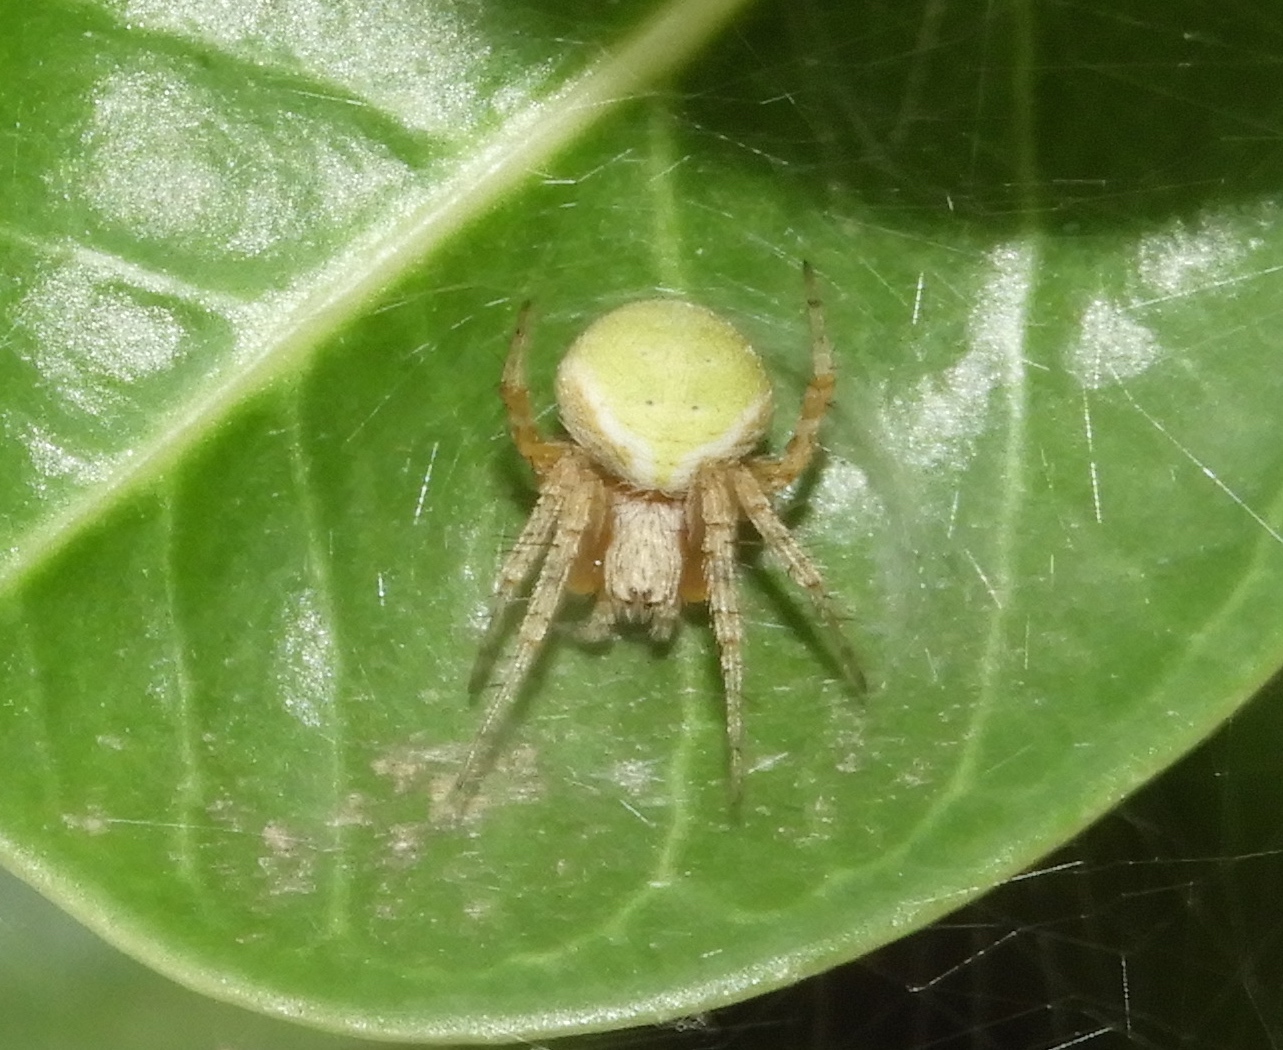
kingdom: Animalia
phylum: Arthropoda
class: Arachnida
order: Araneae
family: Araneidae
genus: Araneus
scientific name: Araneus detrimentosus
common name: Orb weavers
